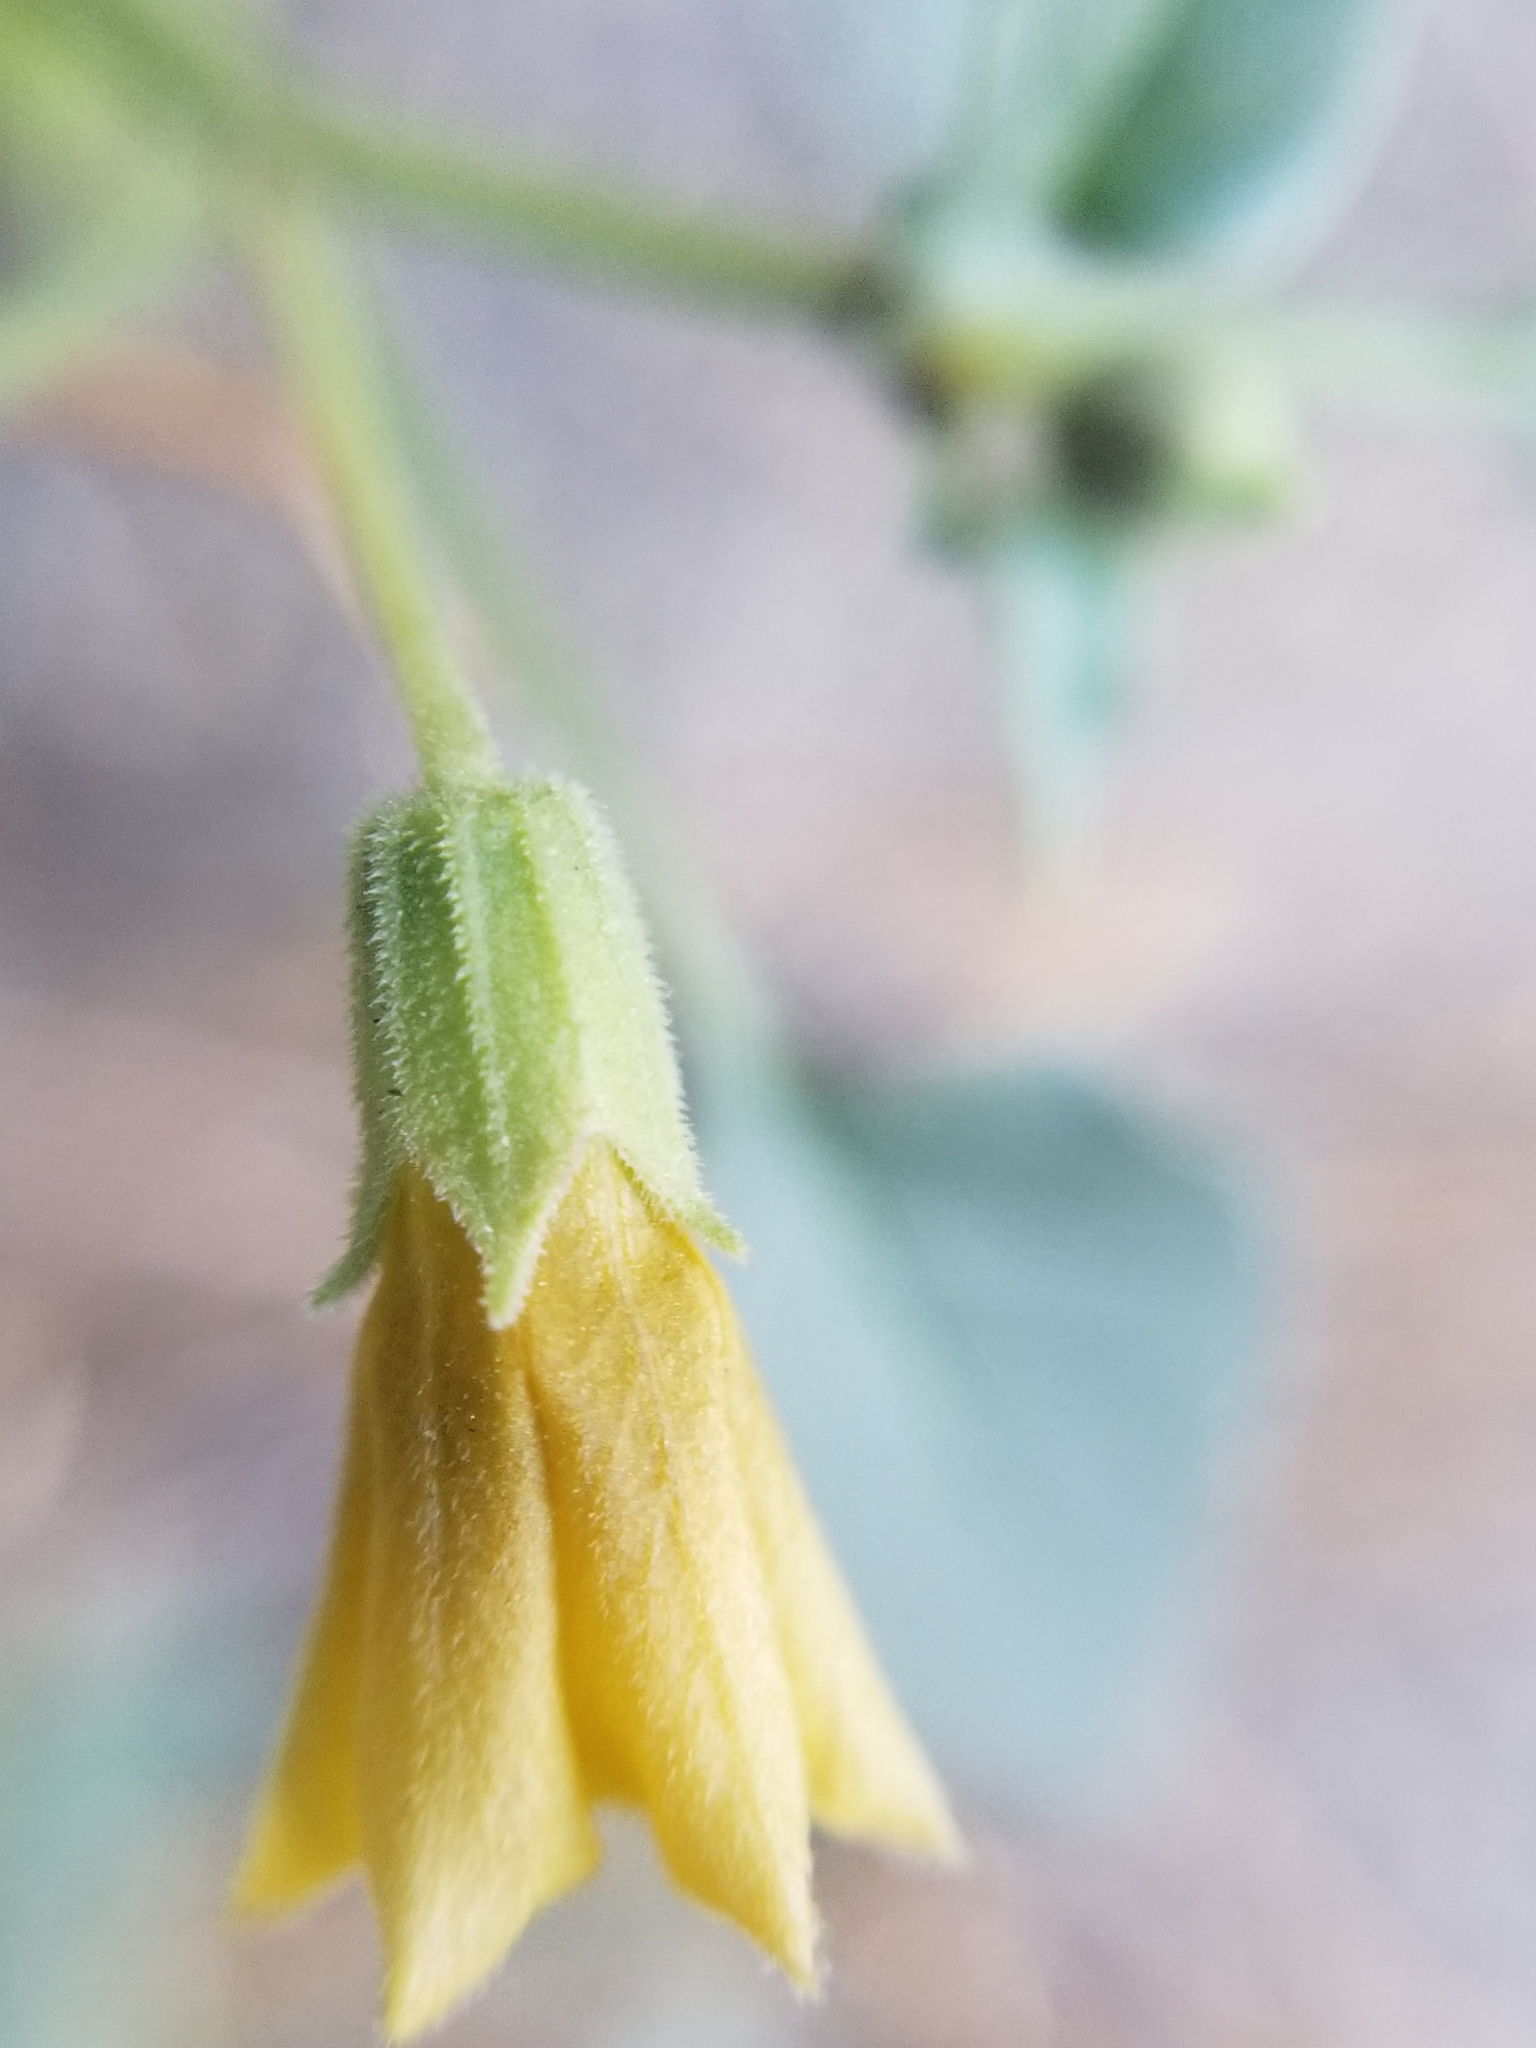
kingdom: Plantae
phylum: Tracheophyta
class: Magnoliopsida
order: Solanales
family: Solanaceae
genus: Physalis
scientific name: Physalis crassifolia
